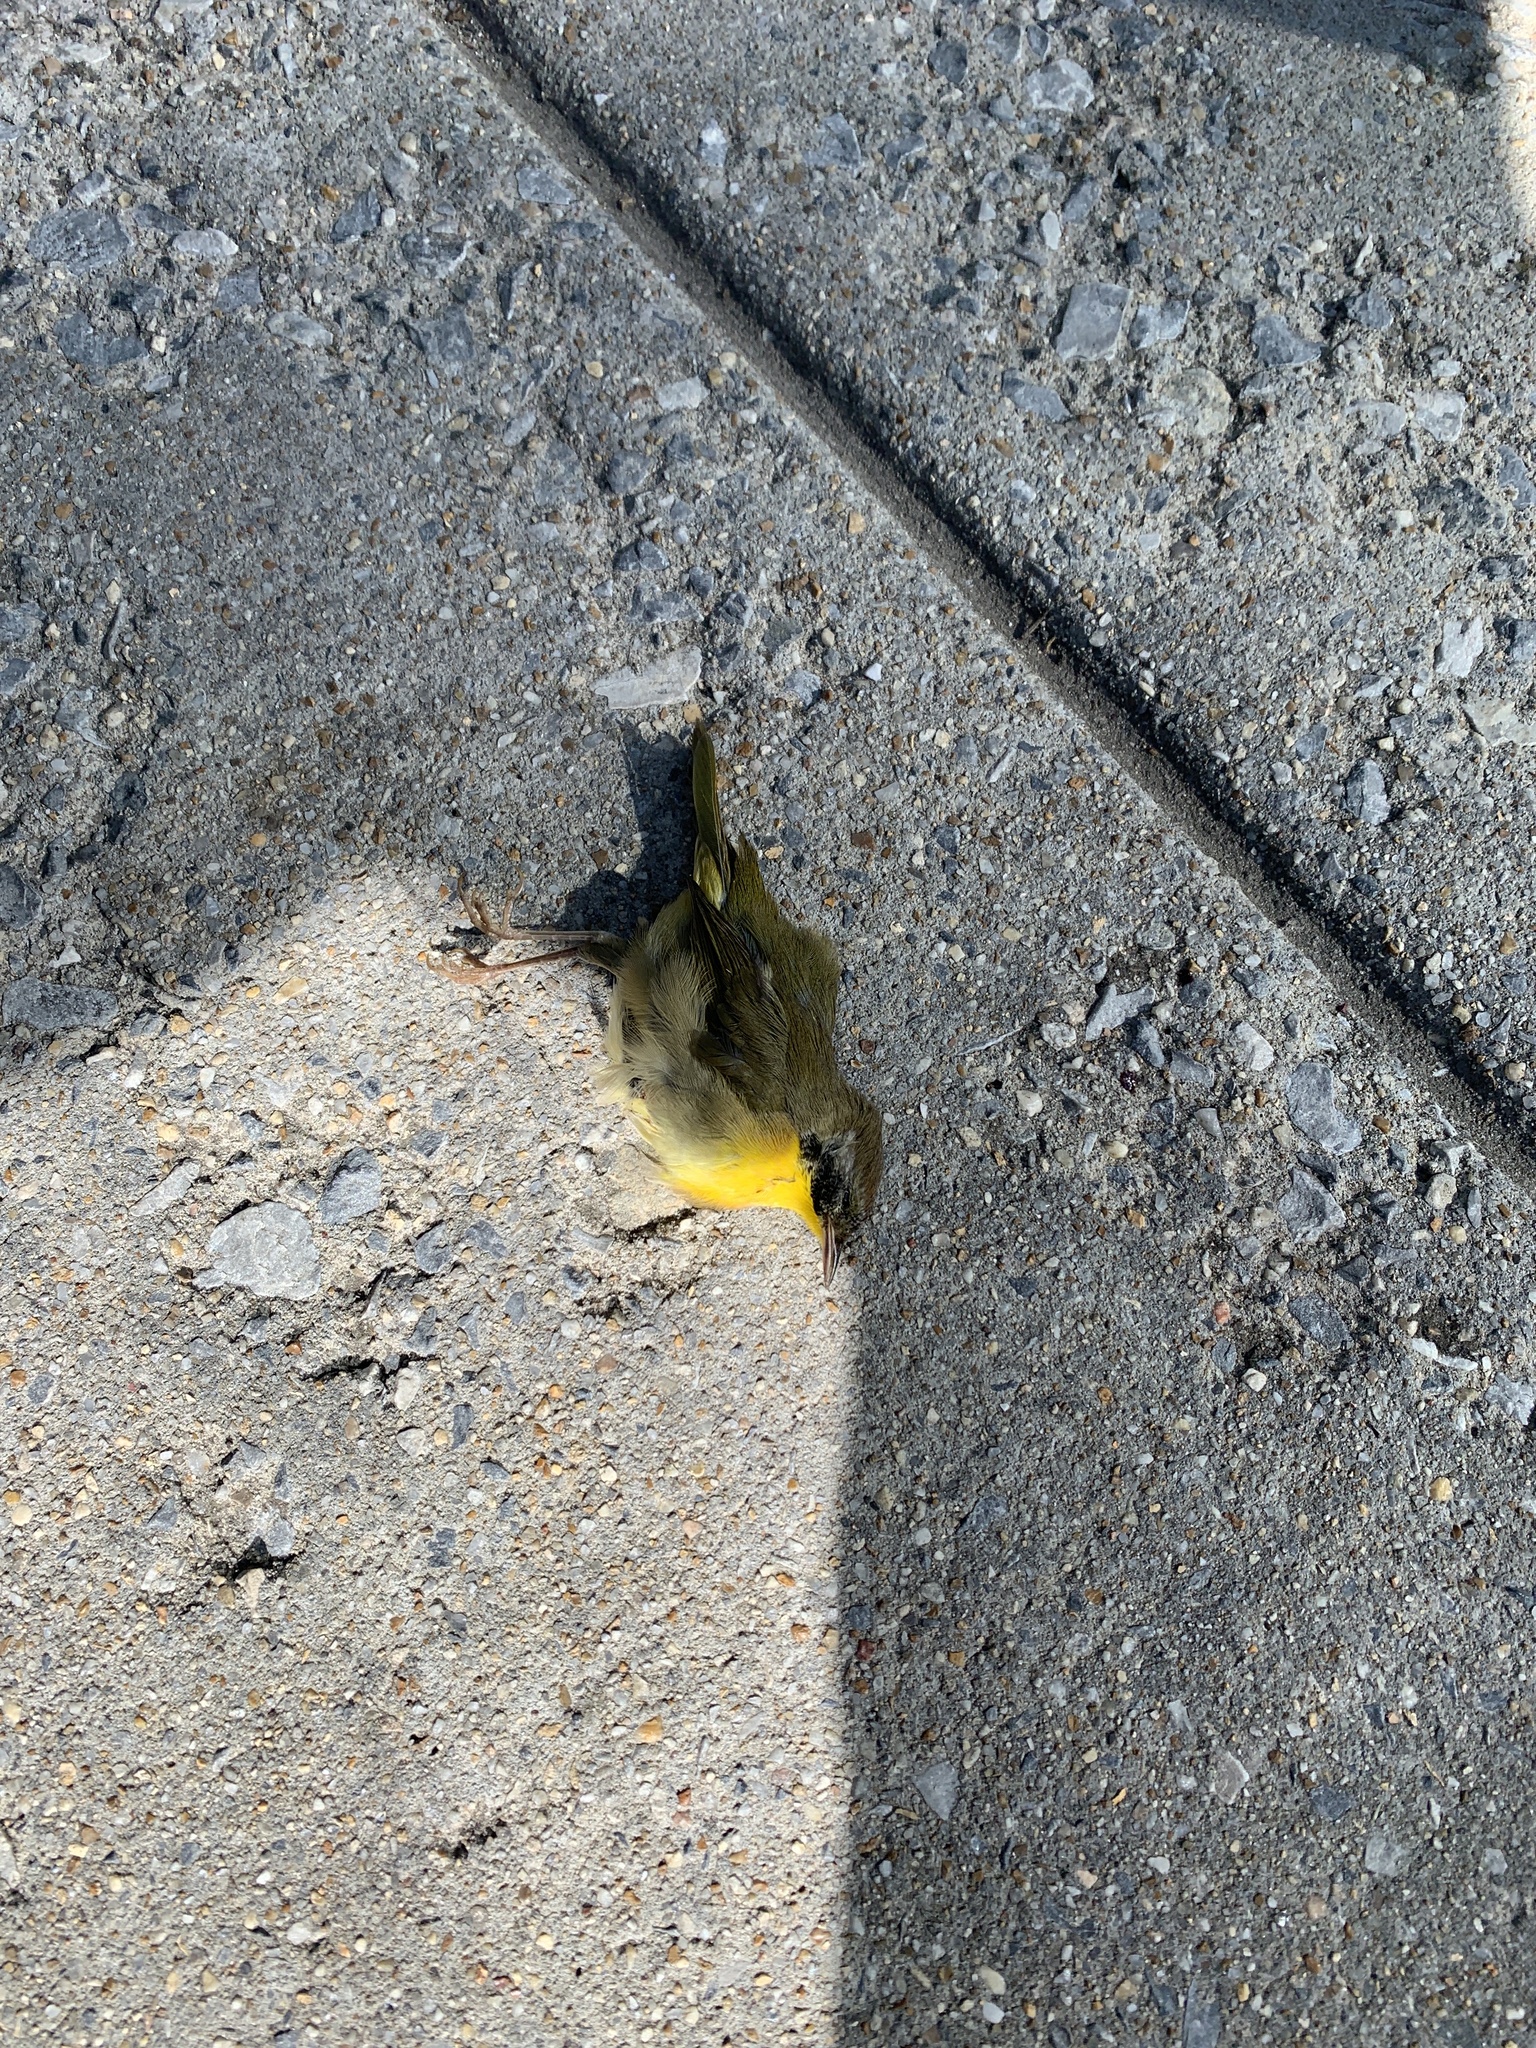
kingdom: Animalia
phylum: Chordata
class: Aves
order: Passeriformes
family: Parulidae
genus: Geothlypis
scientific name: Geothlypis trichas
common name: Common yellowthroat
